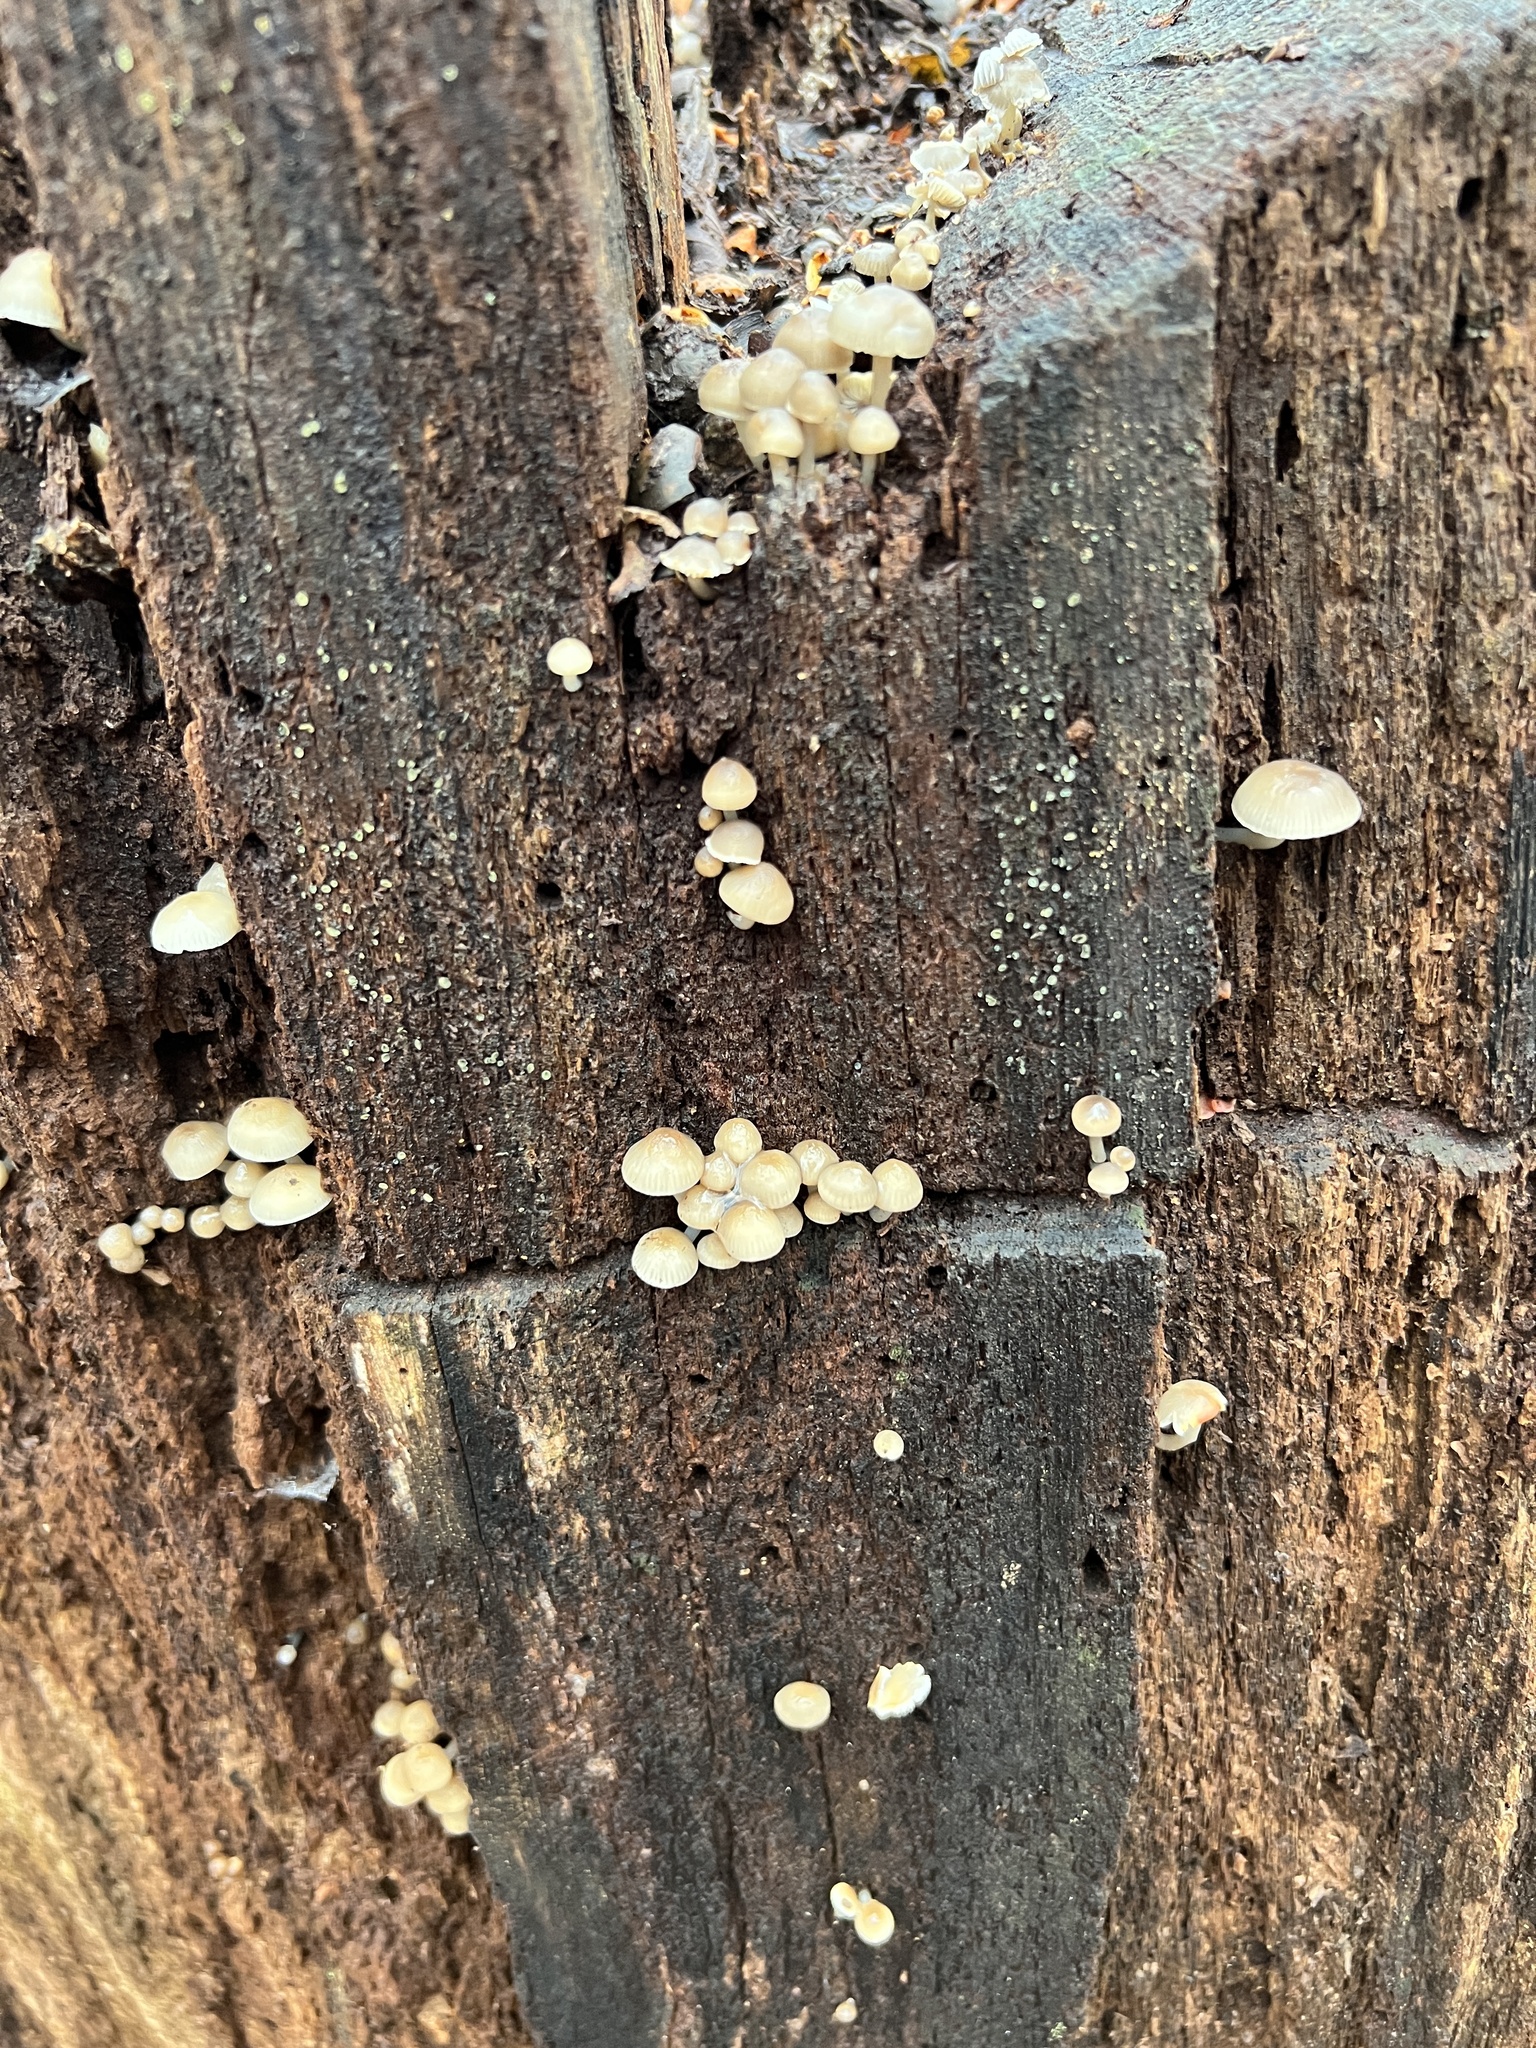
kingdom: Fungi
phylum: Basidiomycota
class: Agaricomycetes
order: Agaricales
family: Mycenaceae
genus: Mycena
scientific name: Mycena overholtsii
